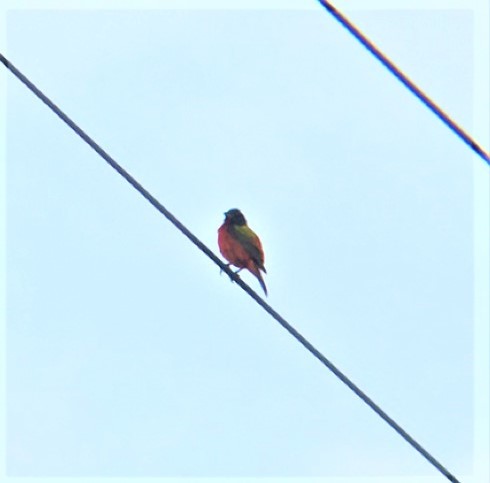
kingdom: Animalia
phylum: Chordata
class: Aves
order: Passeriformes
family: Cardinalidae
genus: Passerina
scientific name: Passerina ciris
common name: Painted bunting
